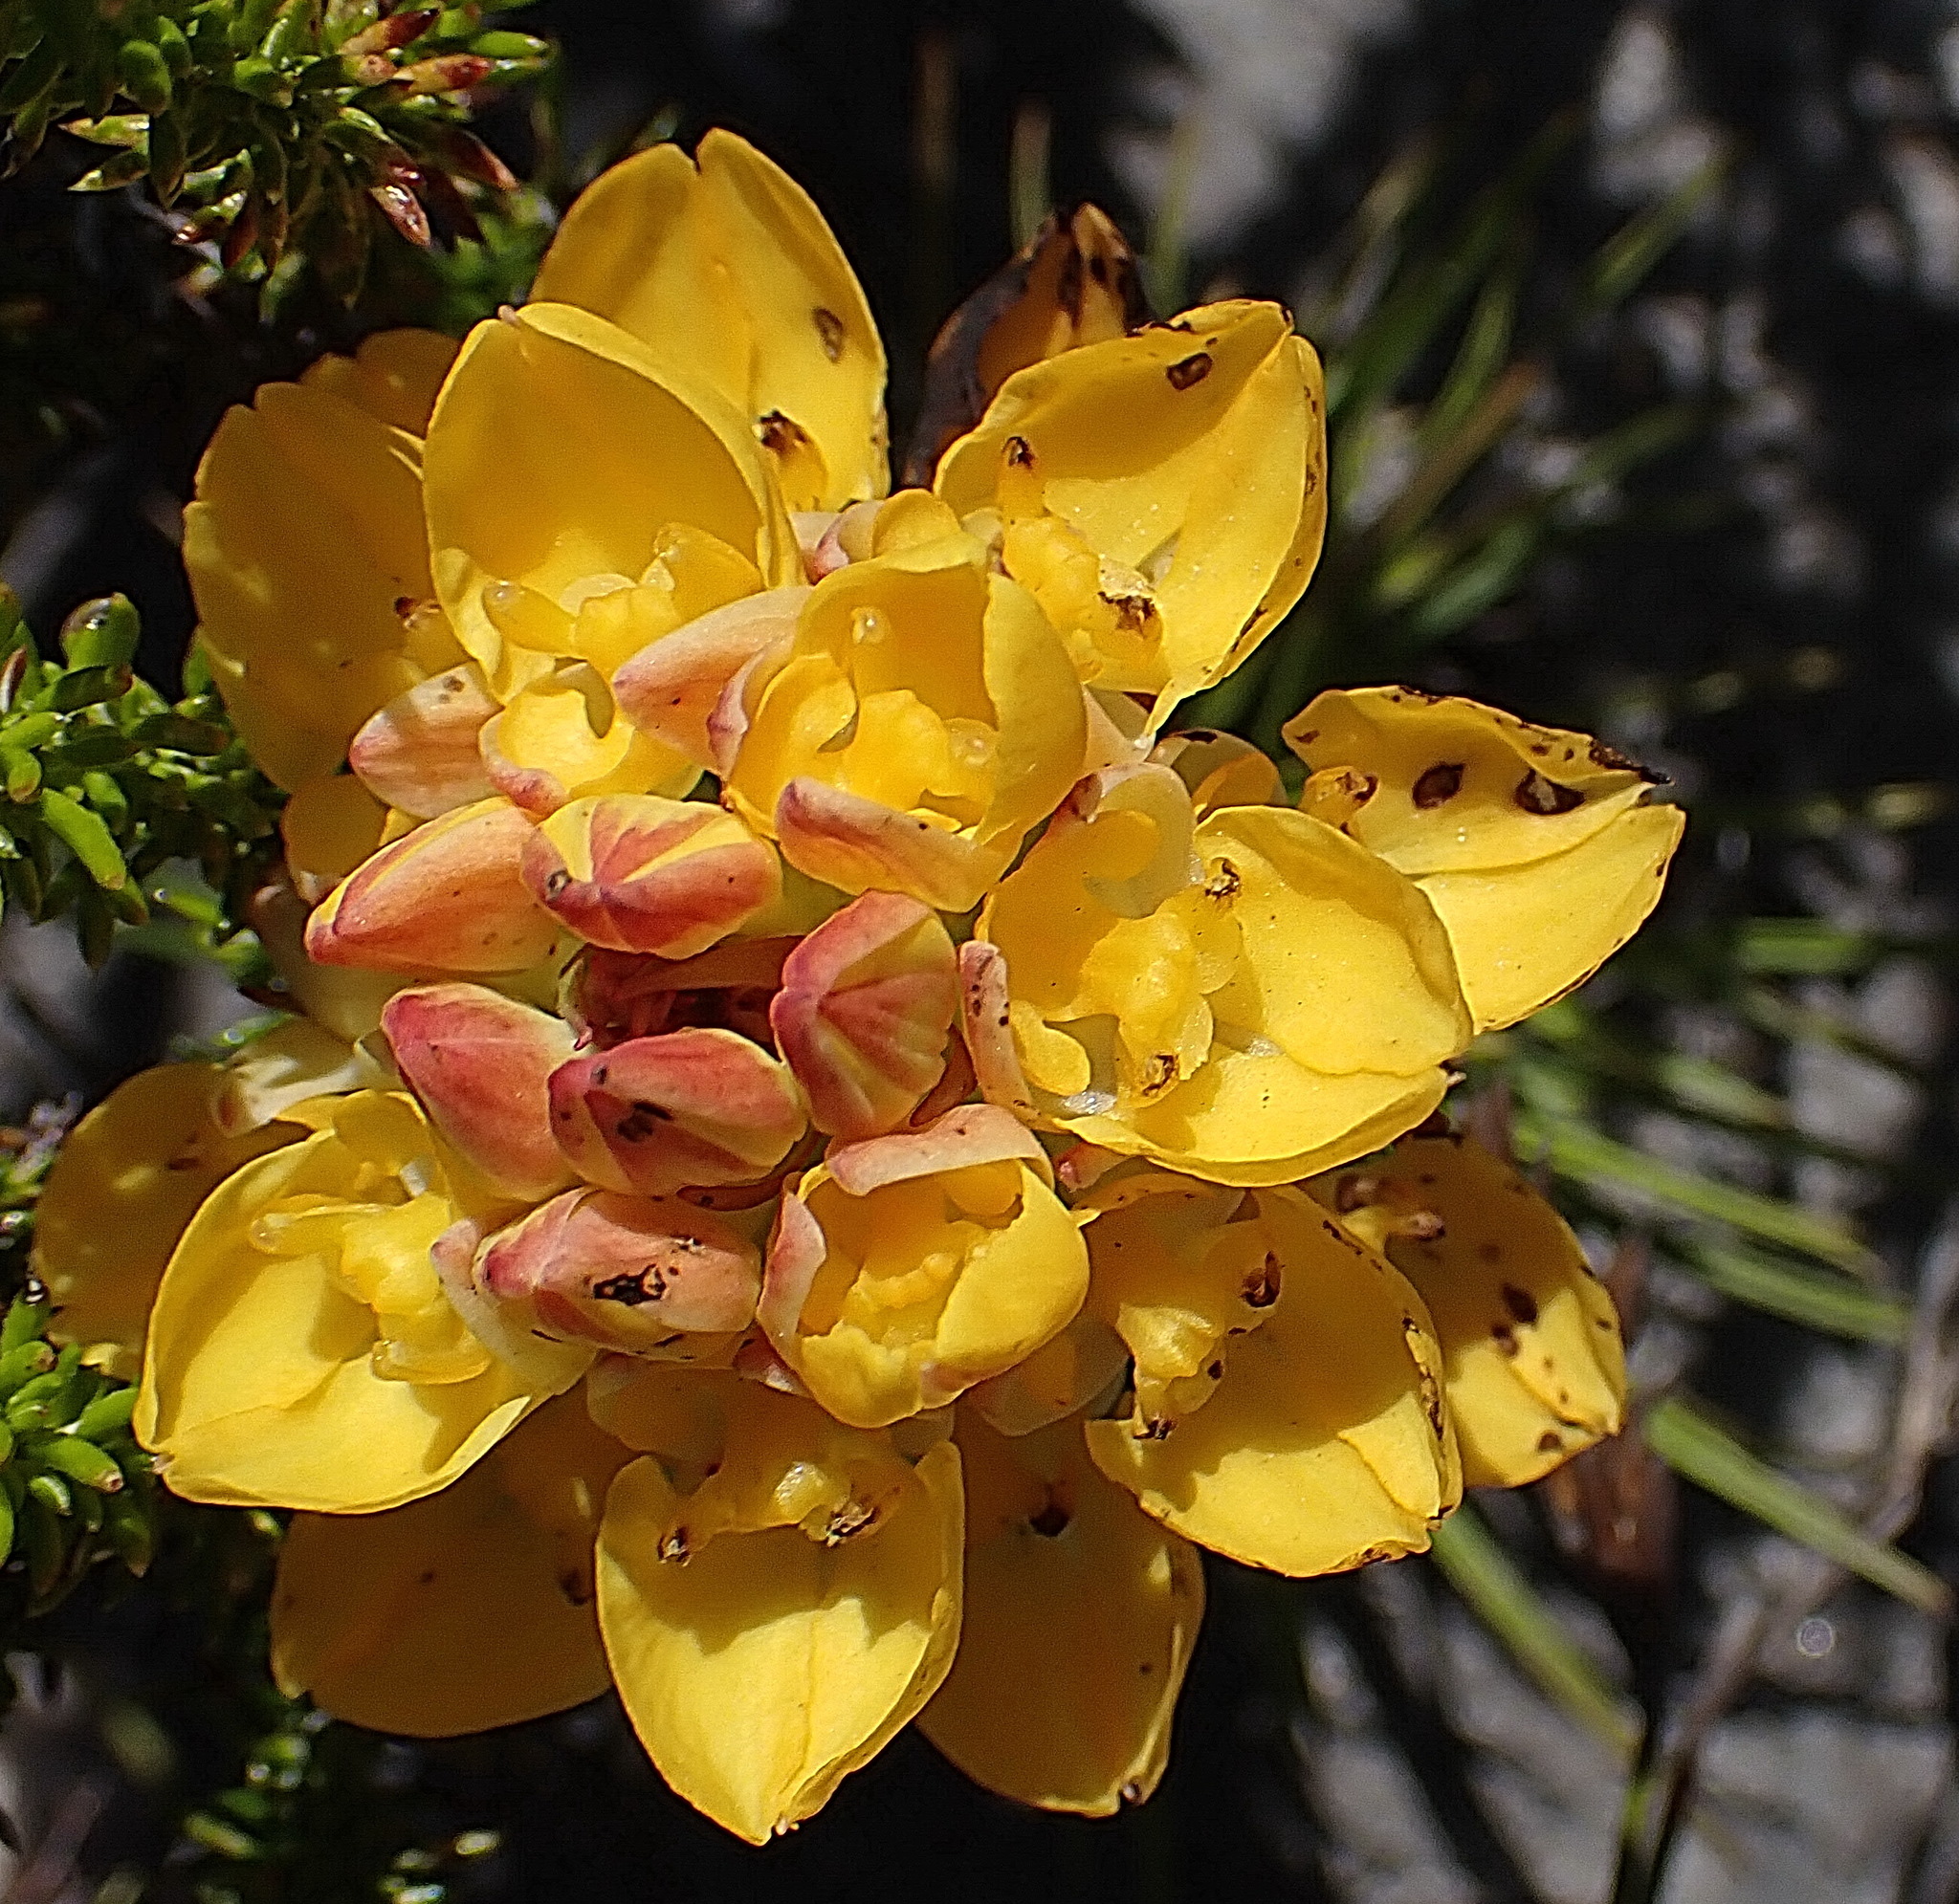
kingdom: Plantae
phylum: Tracheophyta
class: Liliopsida
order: Asparagales
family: Orchidaceae
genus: Ceratandra
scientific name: Ceratandra grandiflora
